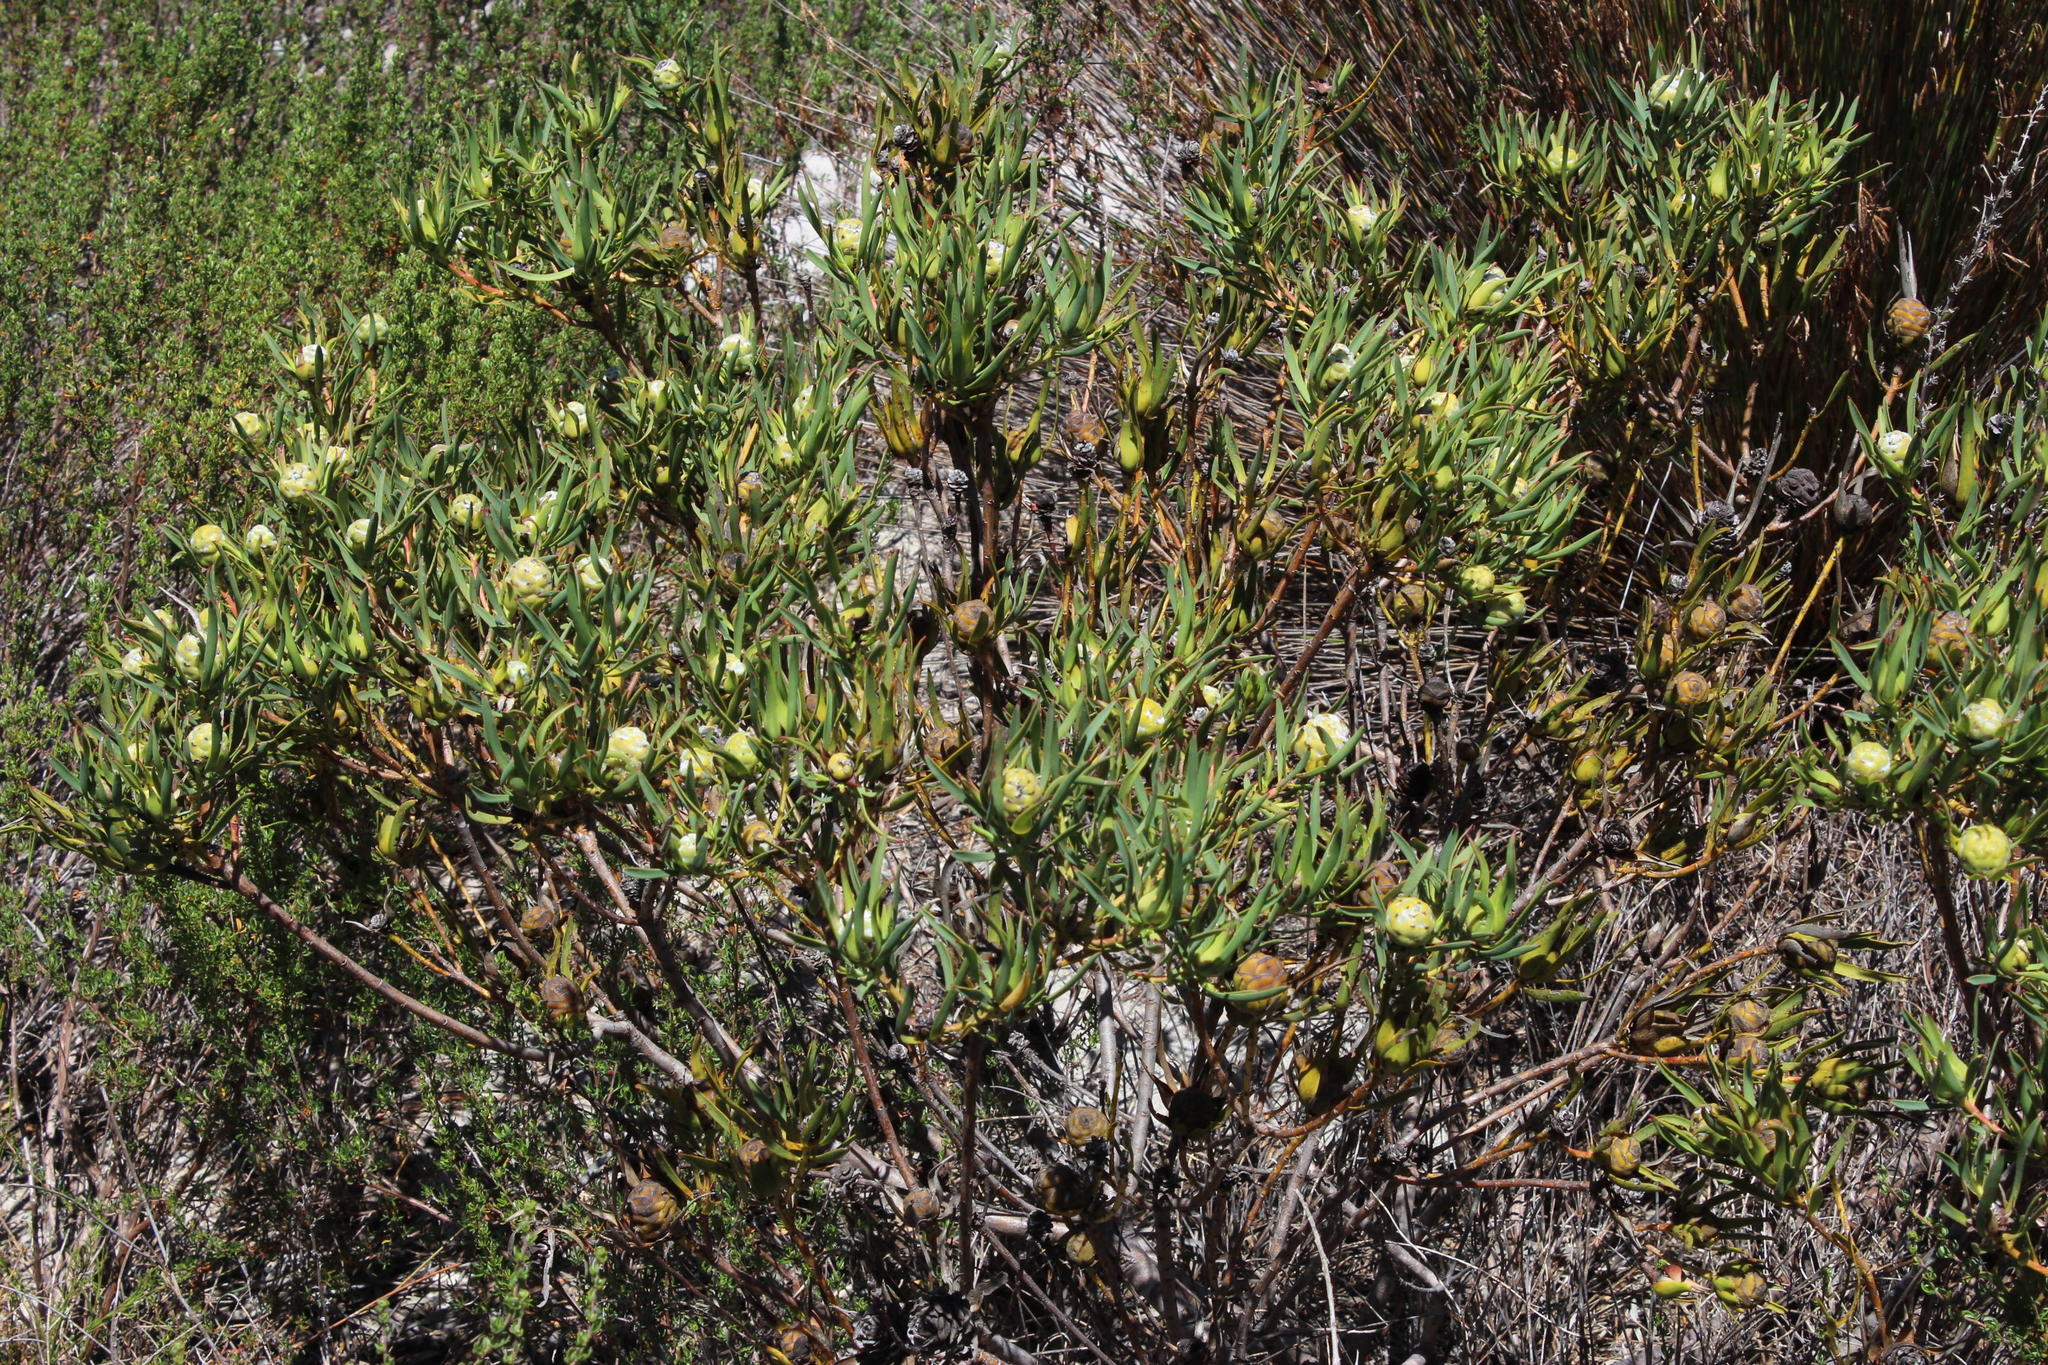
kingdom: Plantae
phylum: Tracheophyta
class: Magnoliopsida
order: Proteales
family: Proteaceae
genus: Leucadendron
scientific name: Leucadendron salignum
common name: Common sunshine conebush
